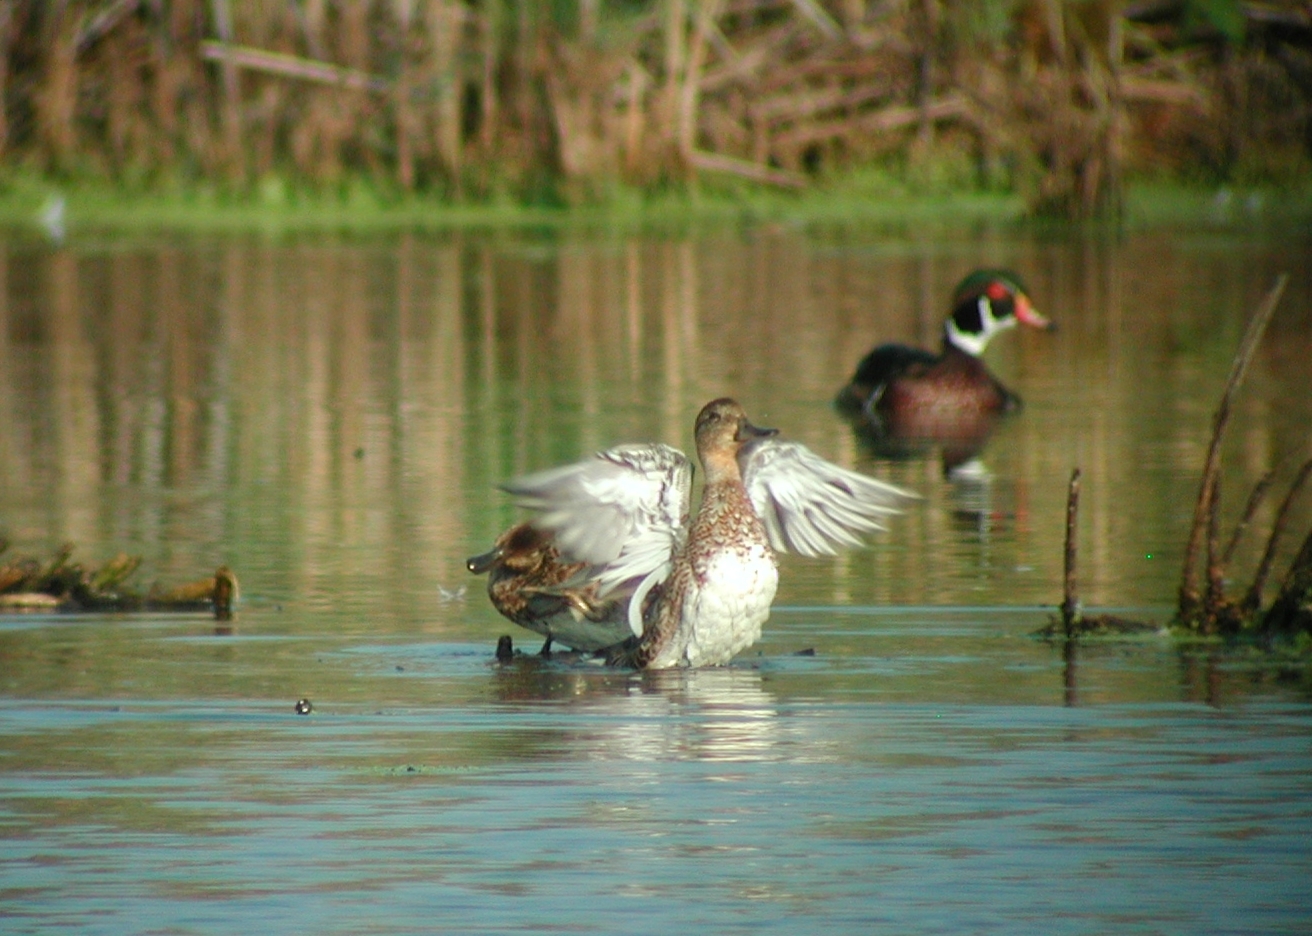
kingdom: Animalia
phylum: Chordata
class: Aves
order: Anseriformes
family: Anatidae
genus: Mareca
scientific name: Mareca strepera
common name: Gadwall
